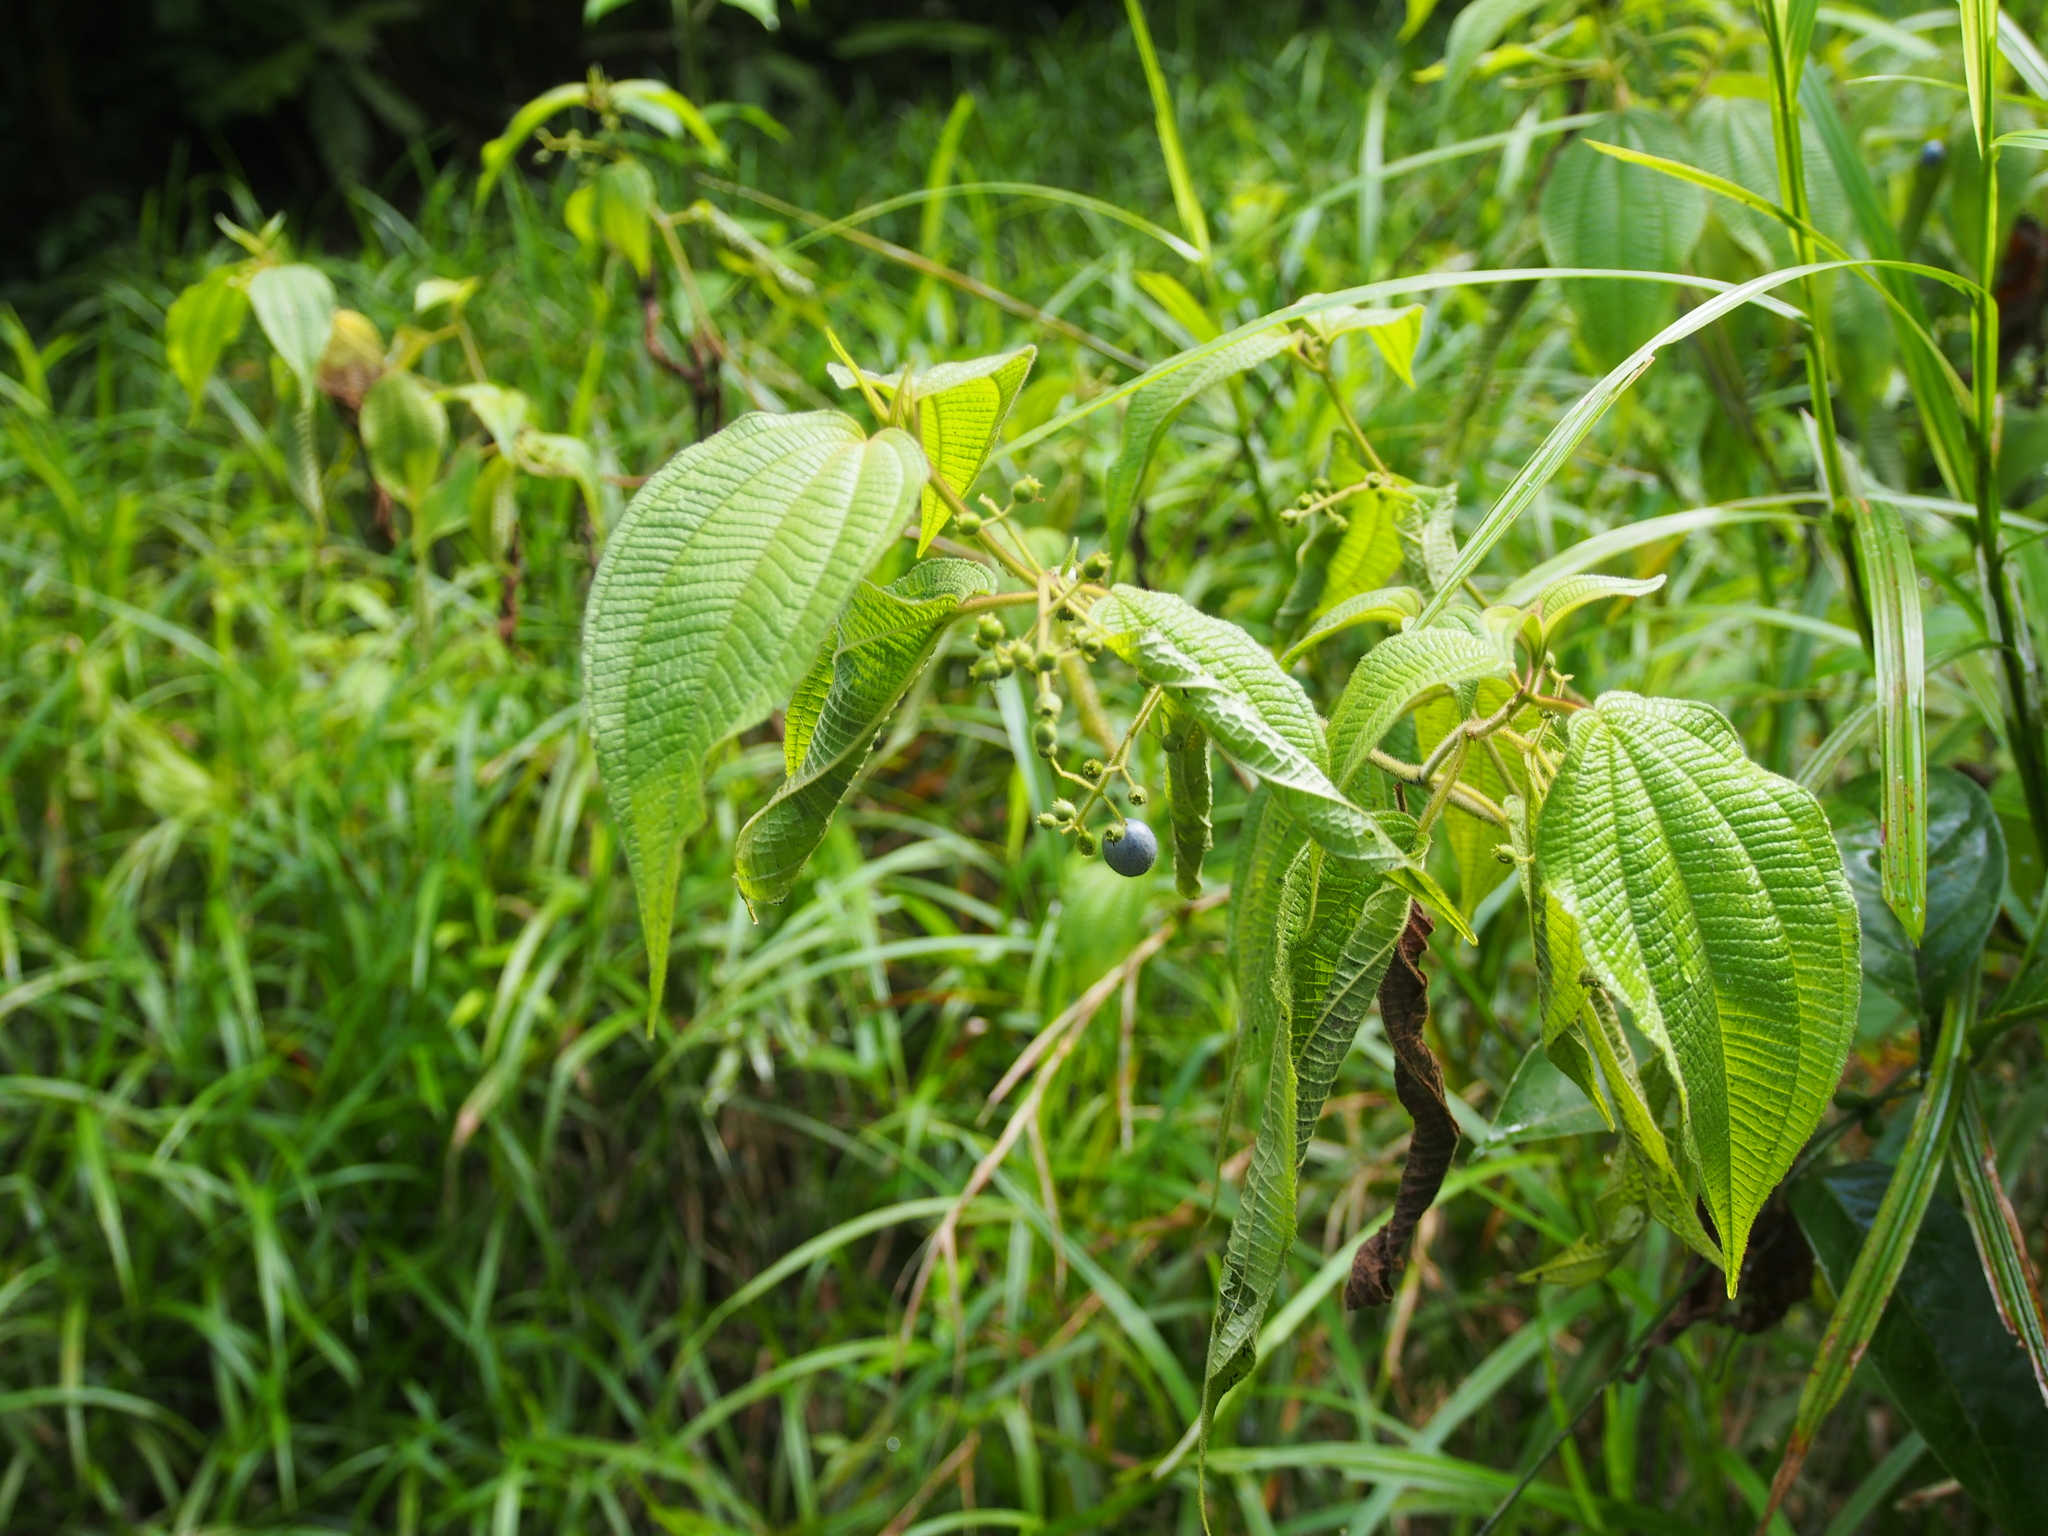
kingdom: Plantae
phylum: Tracheophyta
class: Magnoliopsida
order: Myrtales
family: Melastomataceae
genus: Miconia
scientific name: Miconia heteroclita
